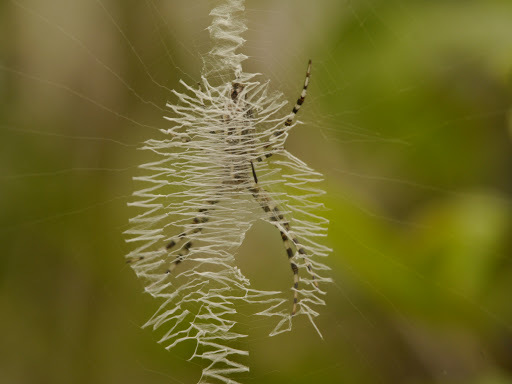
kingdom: Animalia
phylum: Arthropoda
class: Arachnida
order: Araneae
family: Araneidae
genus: Argiope
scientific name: Argiope aurantia
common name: Orb weavers
